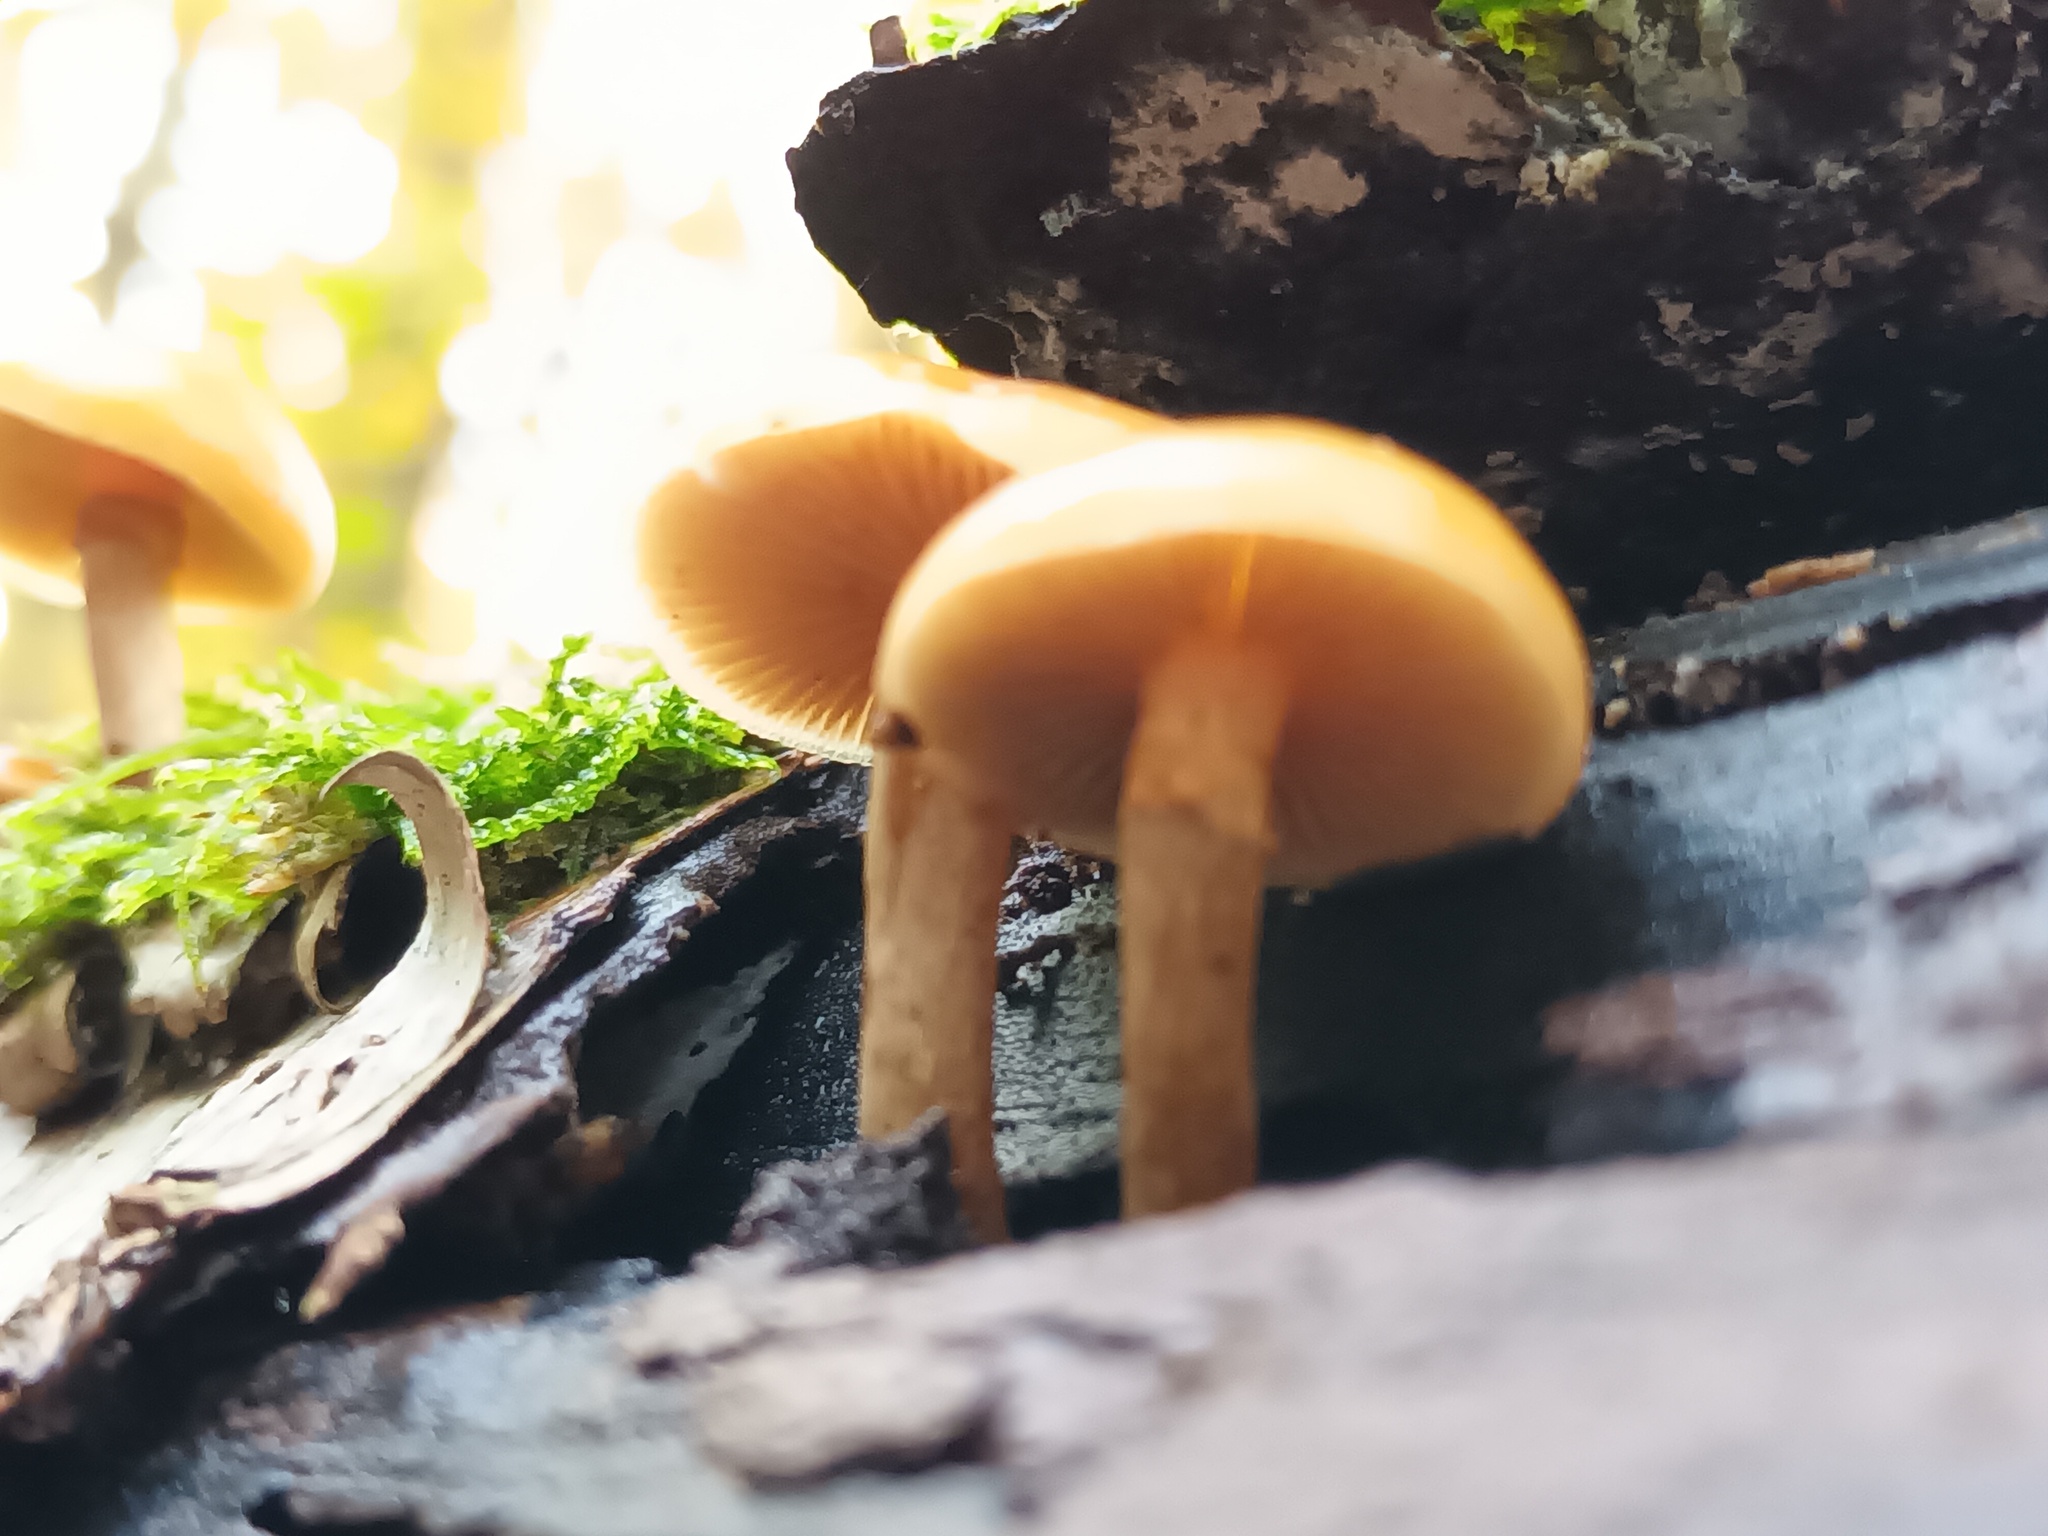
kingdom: Fungi
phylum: Basidiomycota
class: Agaricomycetes
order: Agaricales
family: Hymenogastraceae
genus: Galerina
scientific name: Galerina marginata
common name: Funeral bell
